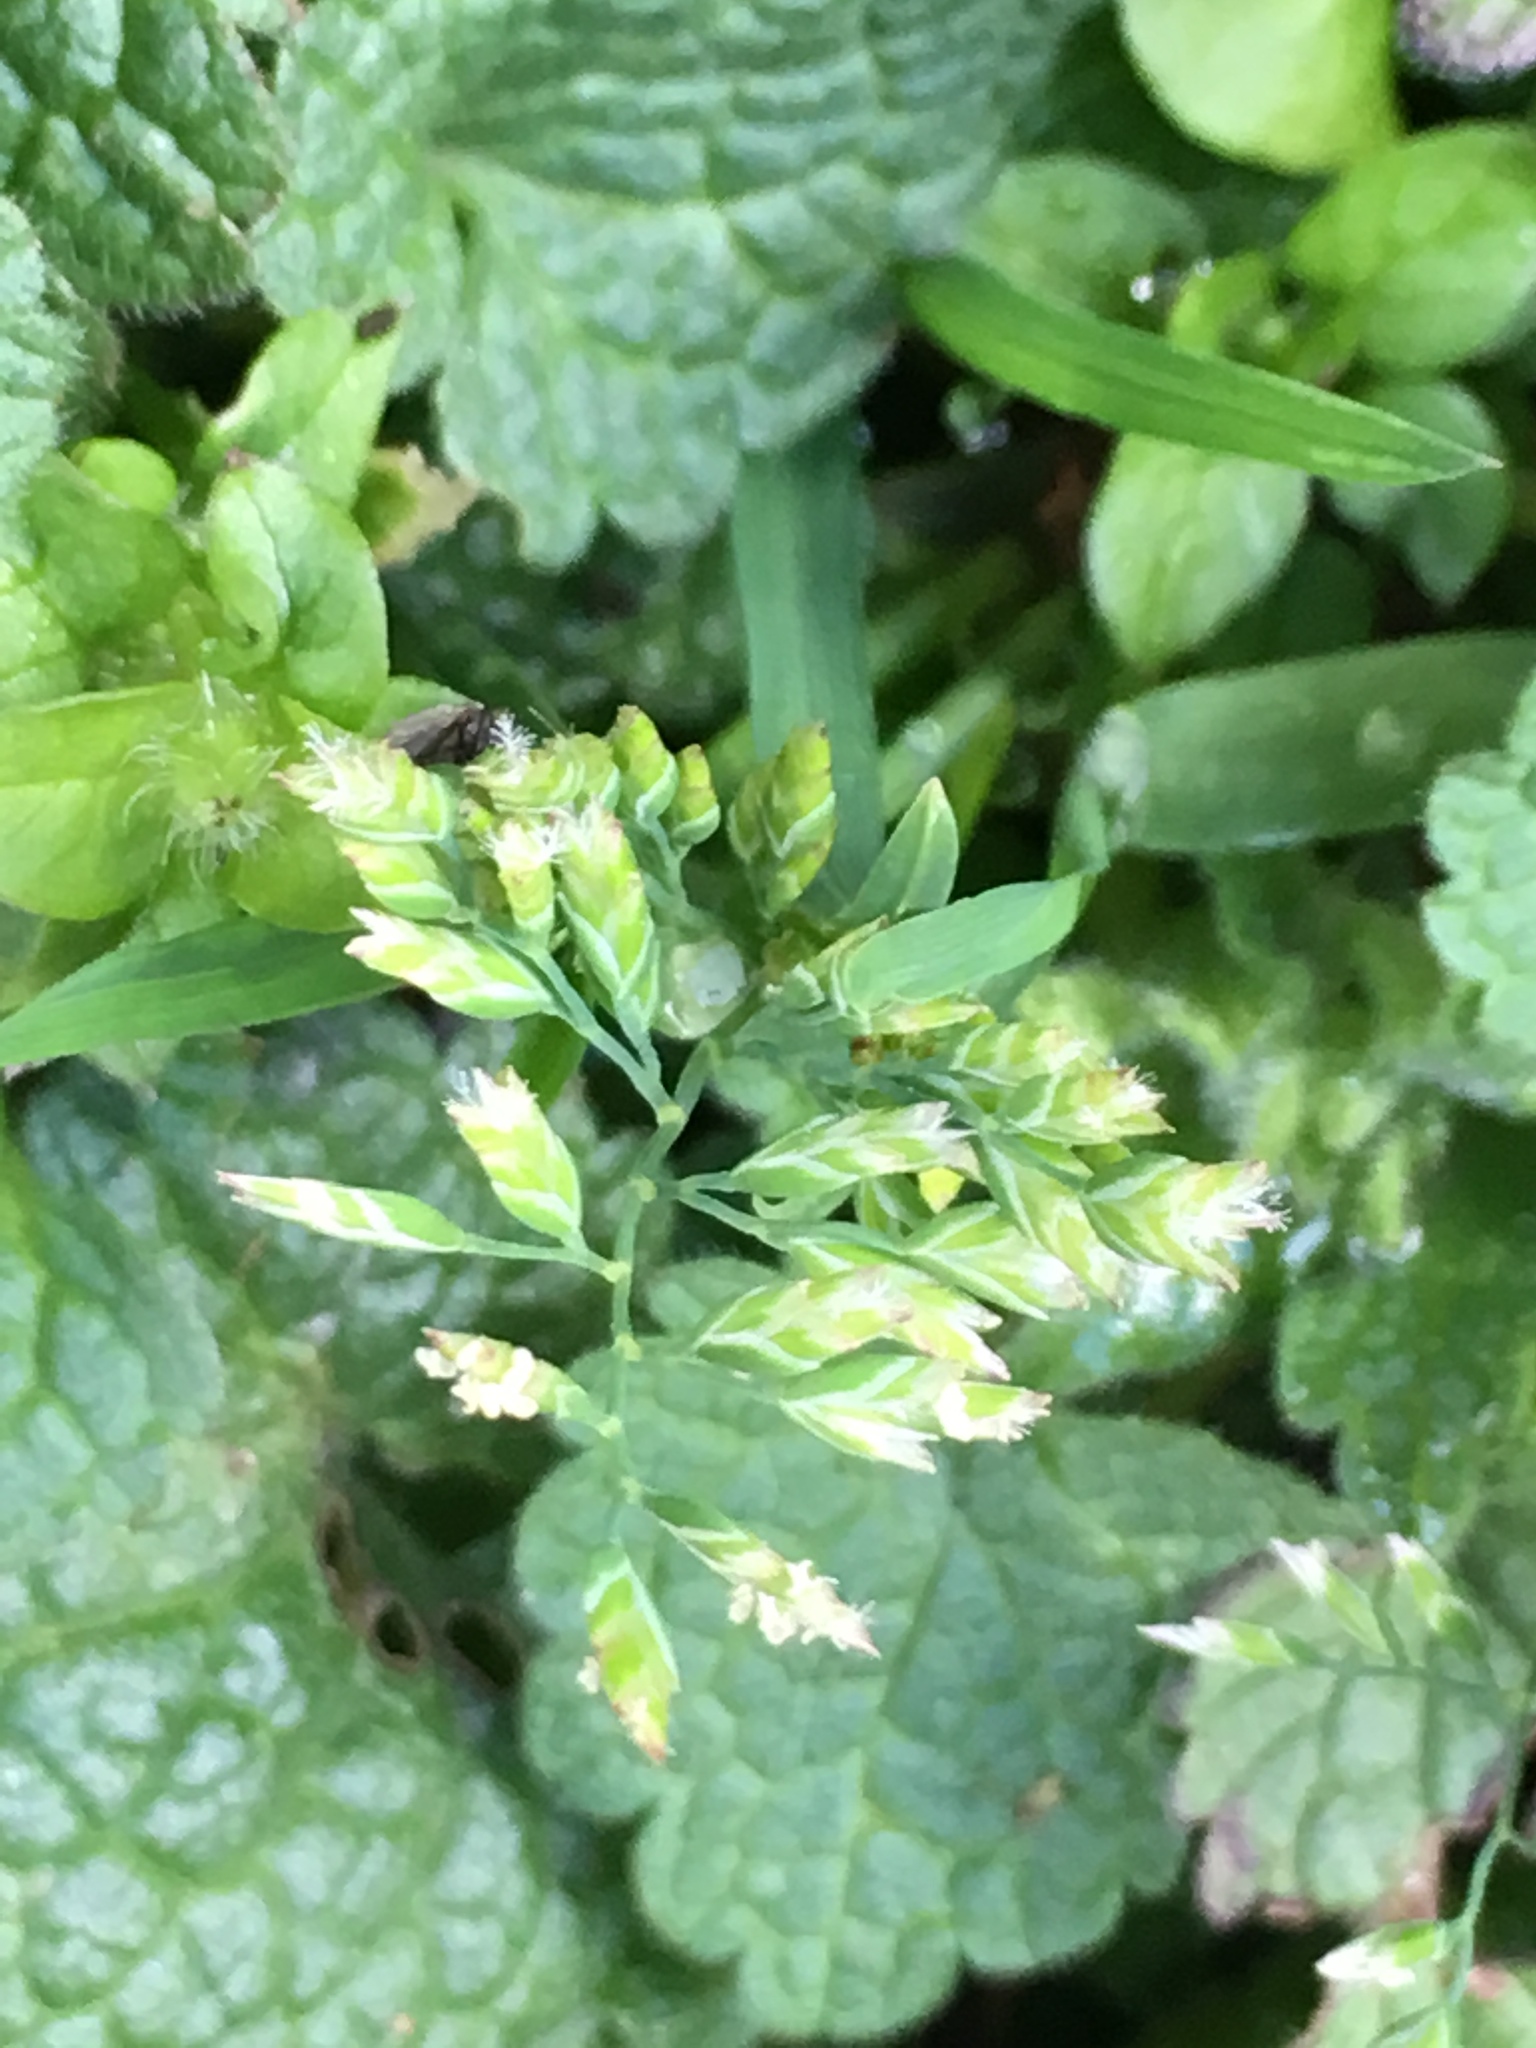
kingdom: Plantae
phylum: Tracheophyta
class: Liliopsida
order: Poales
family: Poaceae
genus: Poa
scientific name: Poa annua
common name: Annual bluegrass
